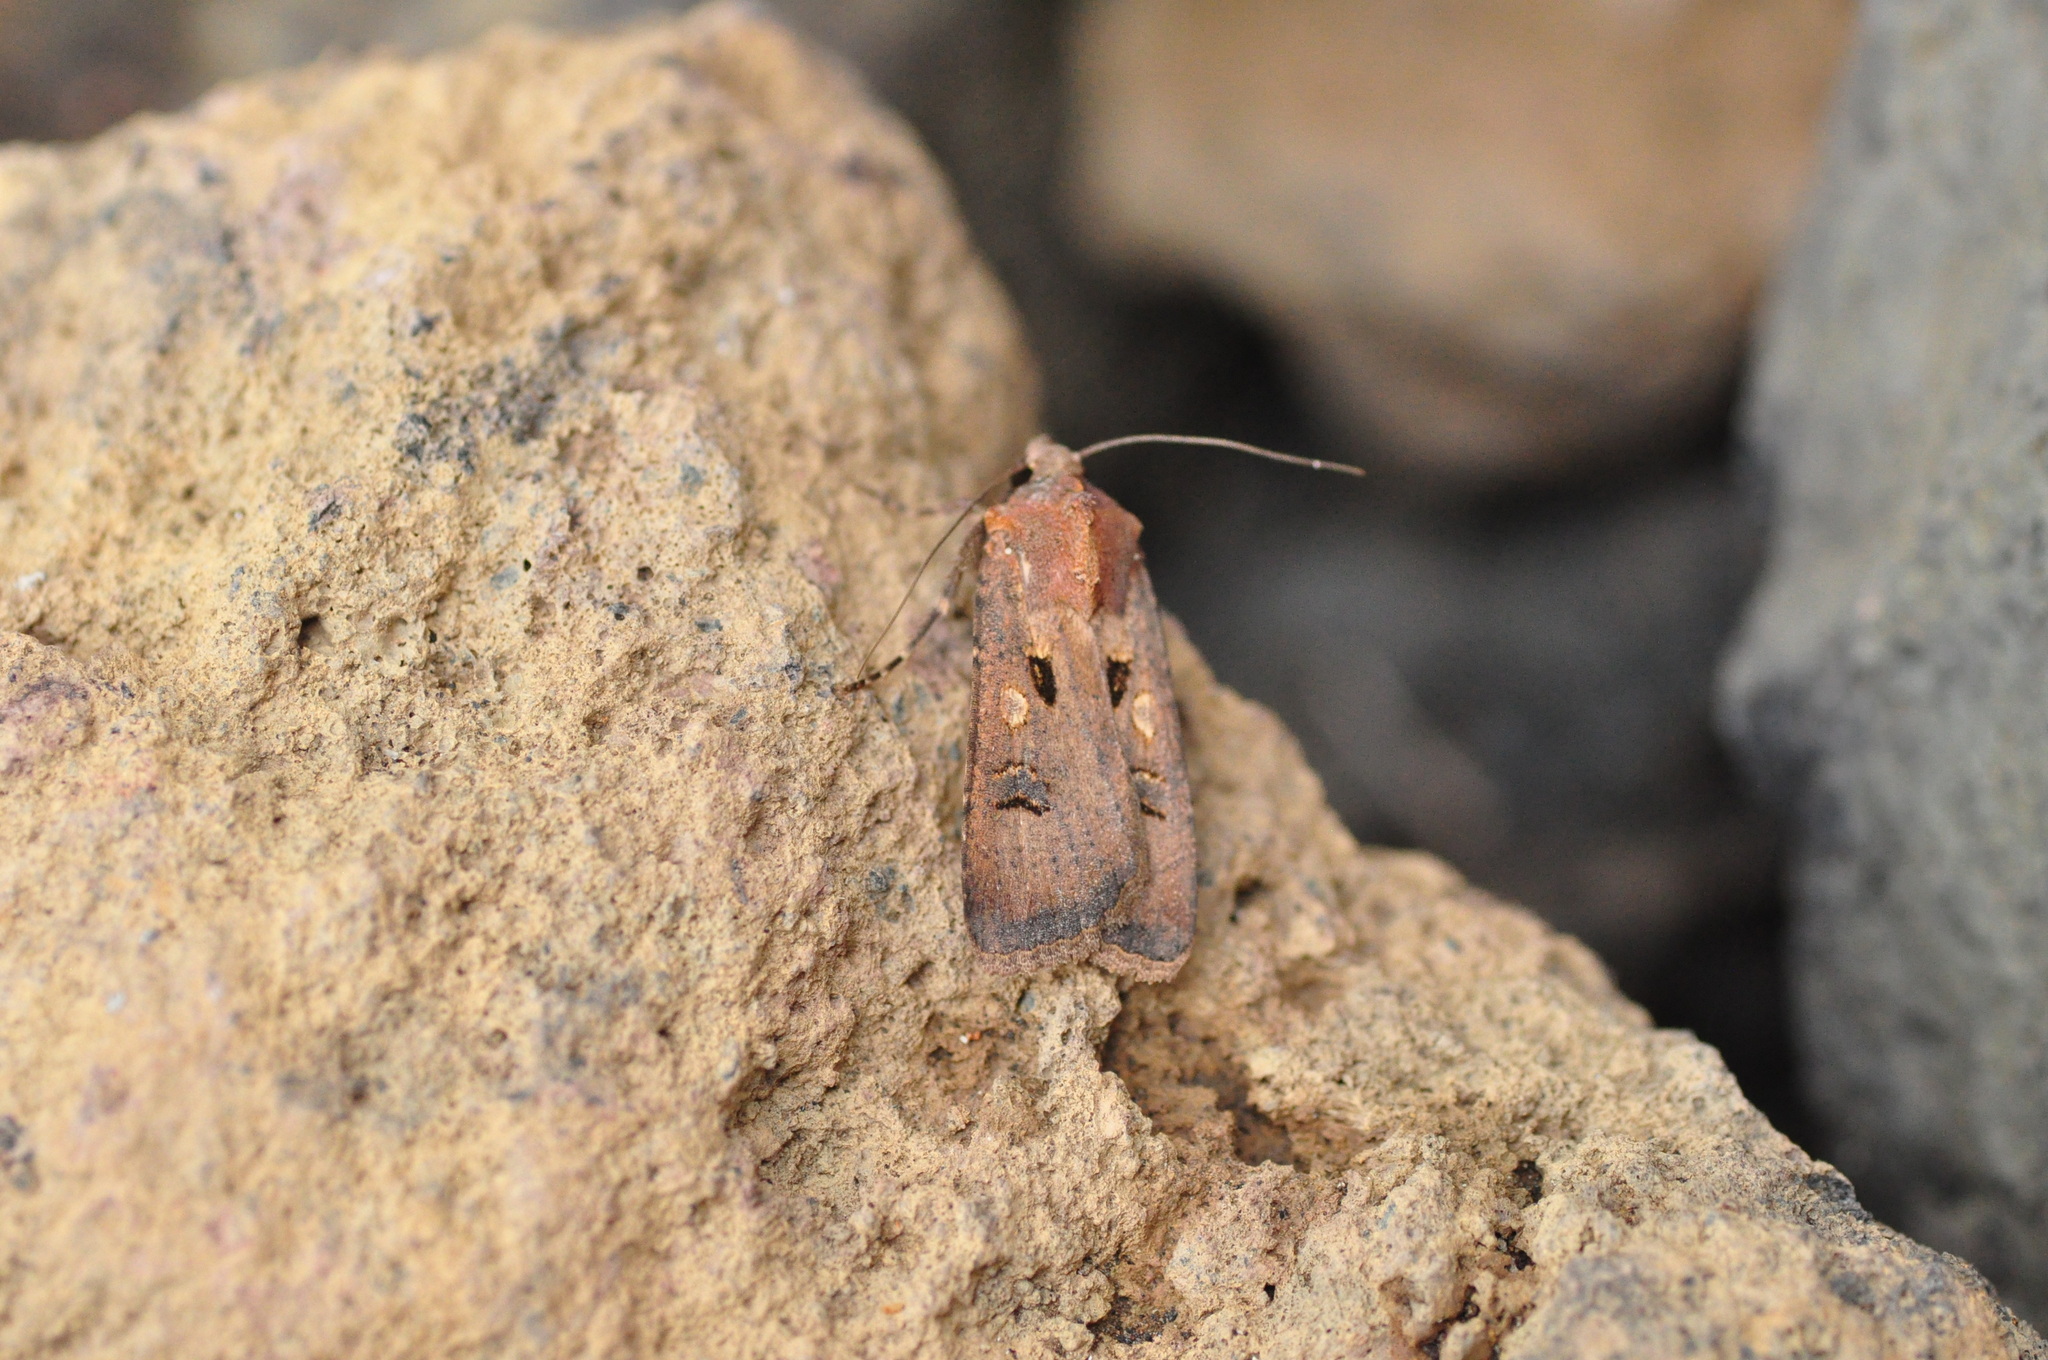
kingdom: Animalia
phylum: Arthropoda
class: Insecta
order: Lepidoptera
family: Noctuidae
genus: Agrotis
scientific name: Agrotis trux
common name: Crescent dart
